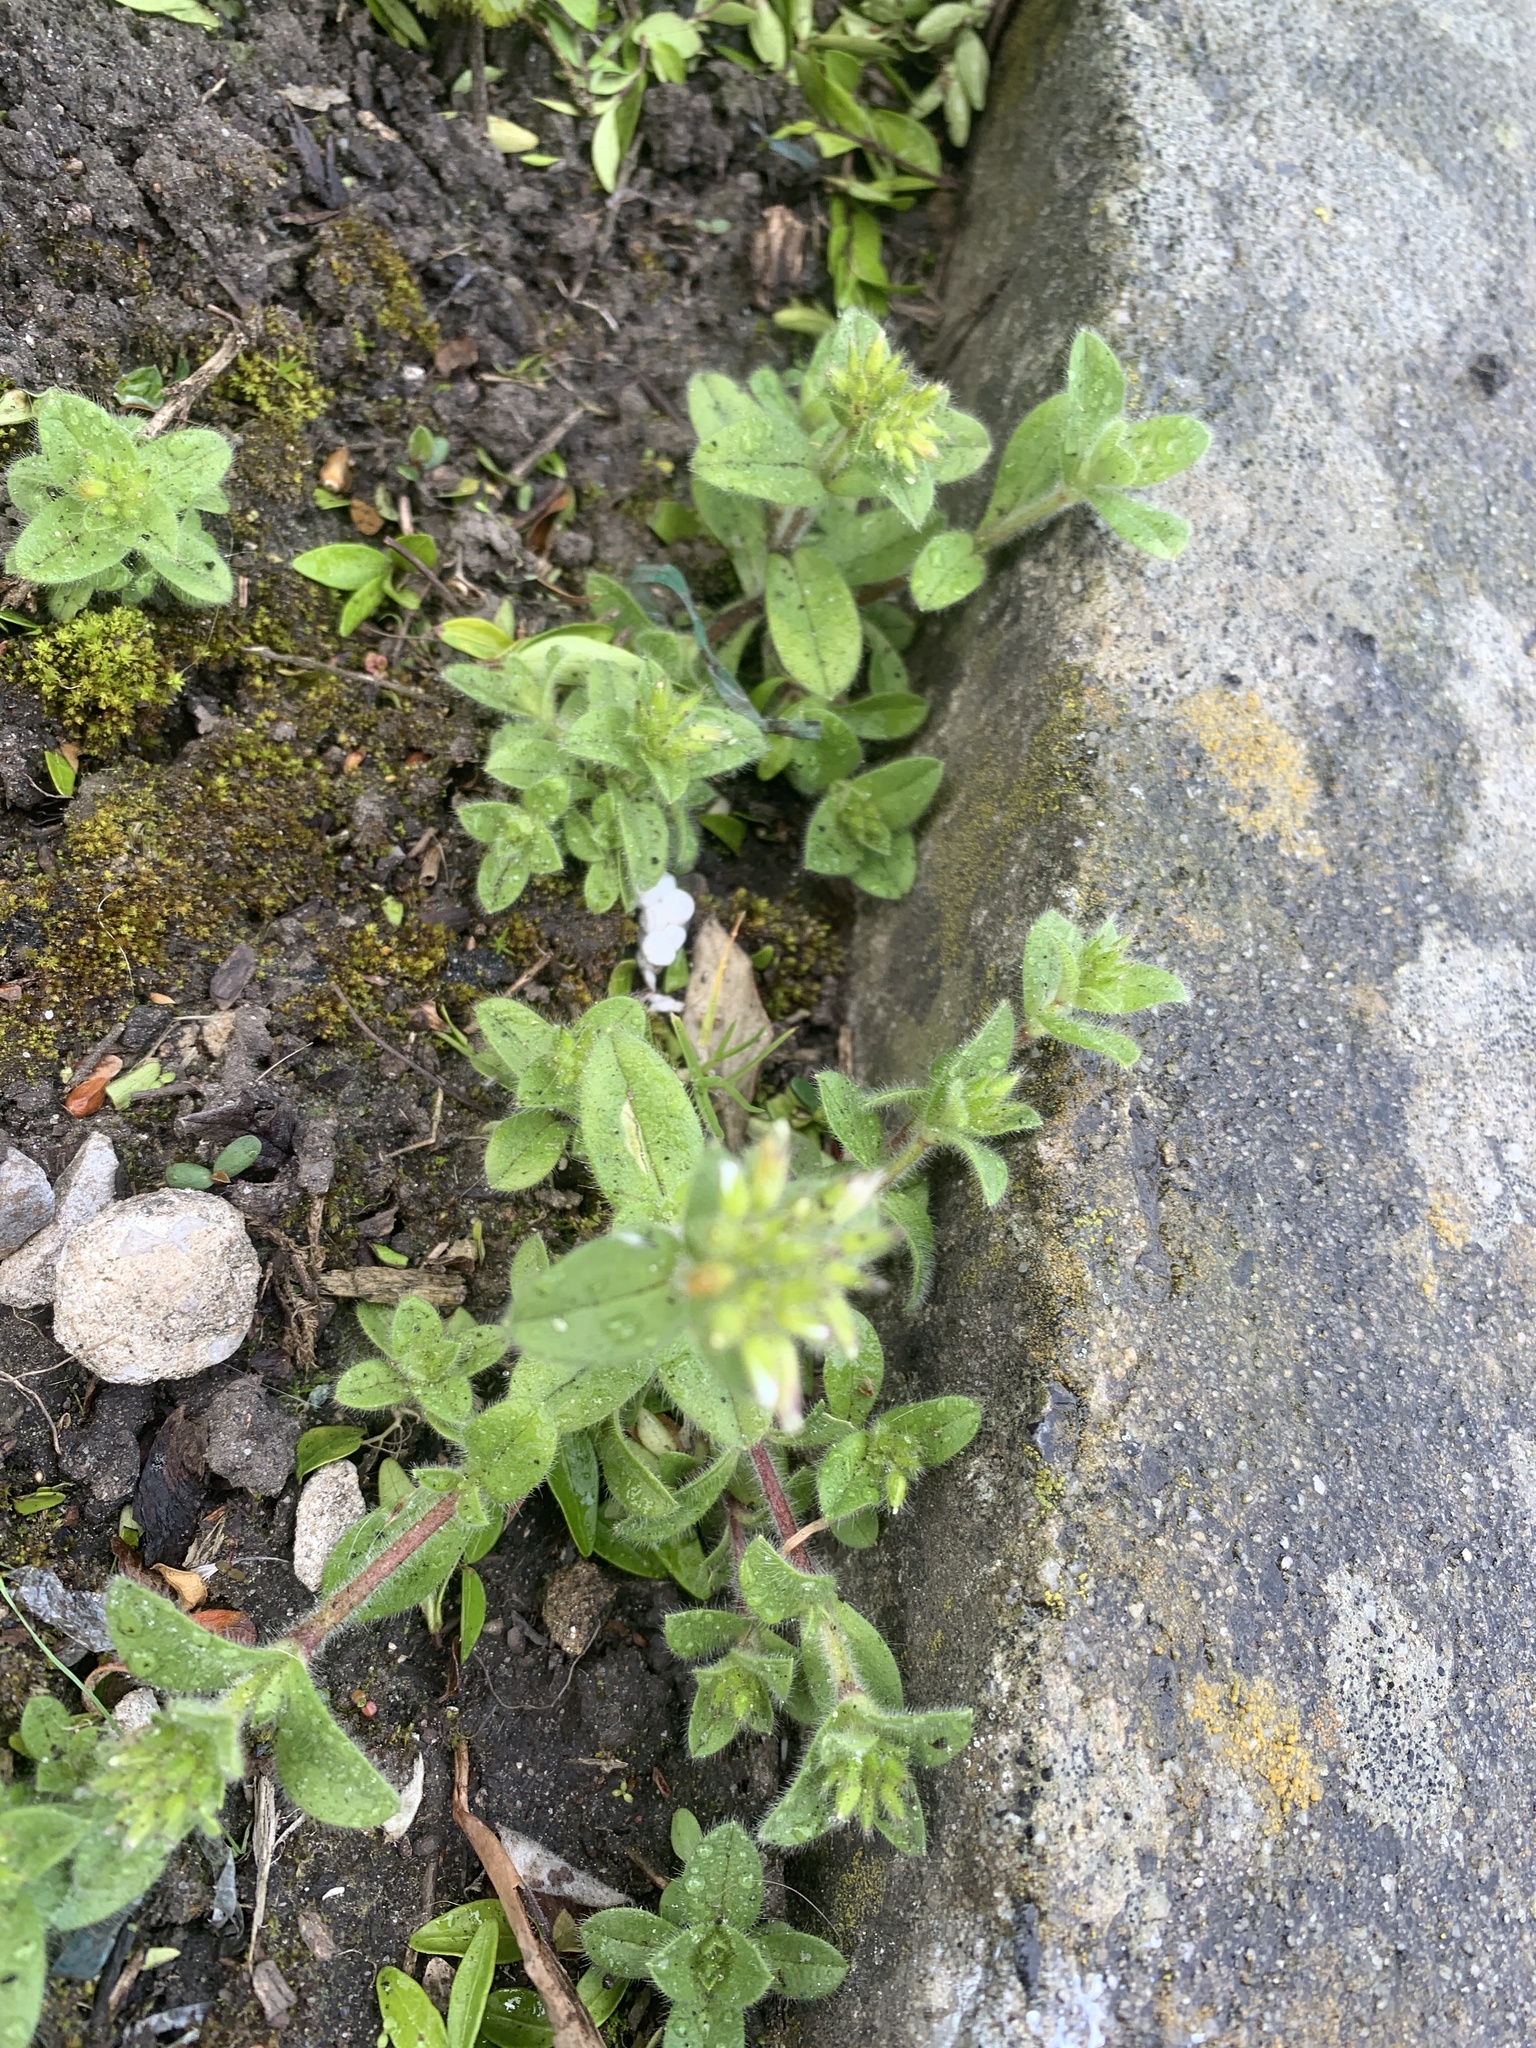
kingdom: Plantae
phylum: Tracheophyta
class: Magnoliopsida
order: Caryophyllales
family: Caryophyllaceae
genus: Cerastium
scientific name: Cerastium glomeratum
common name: Sticky chickweed
